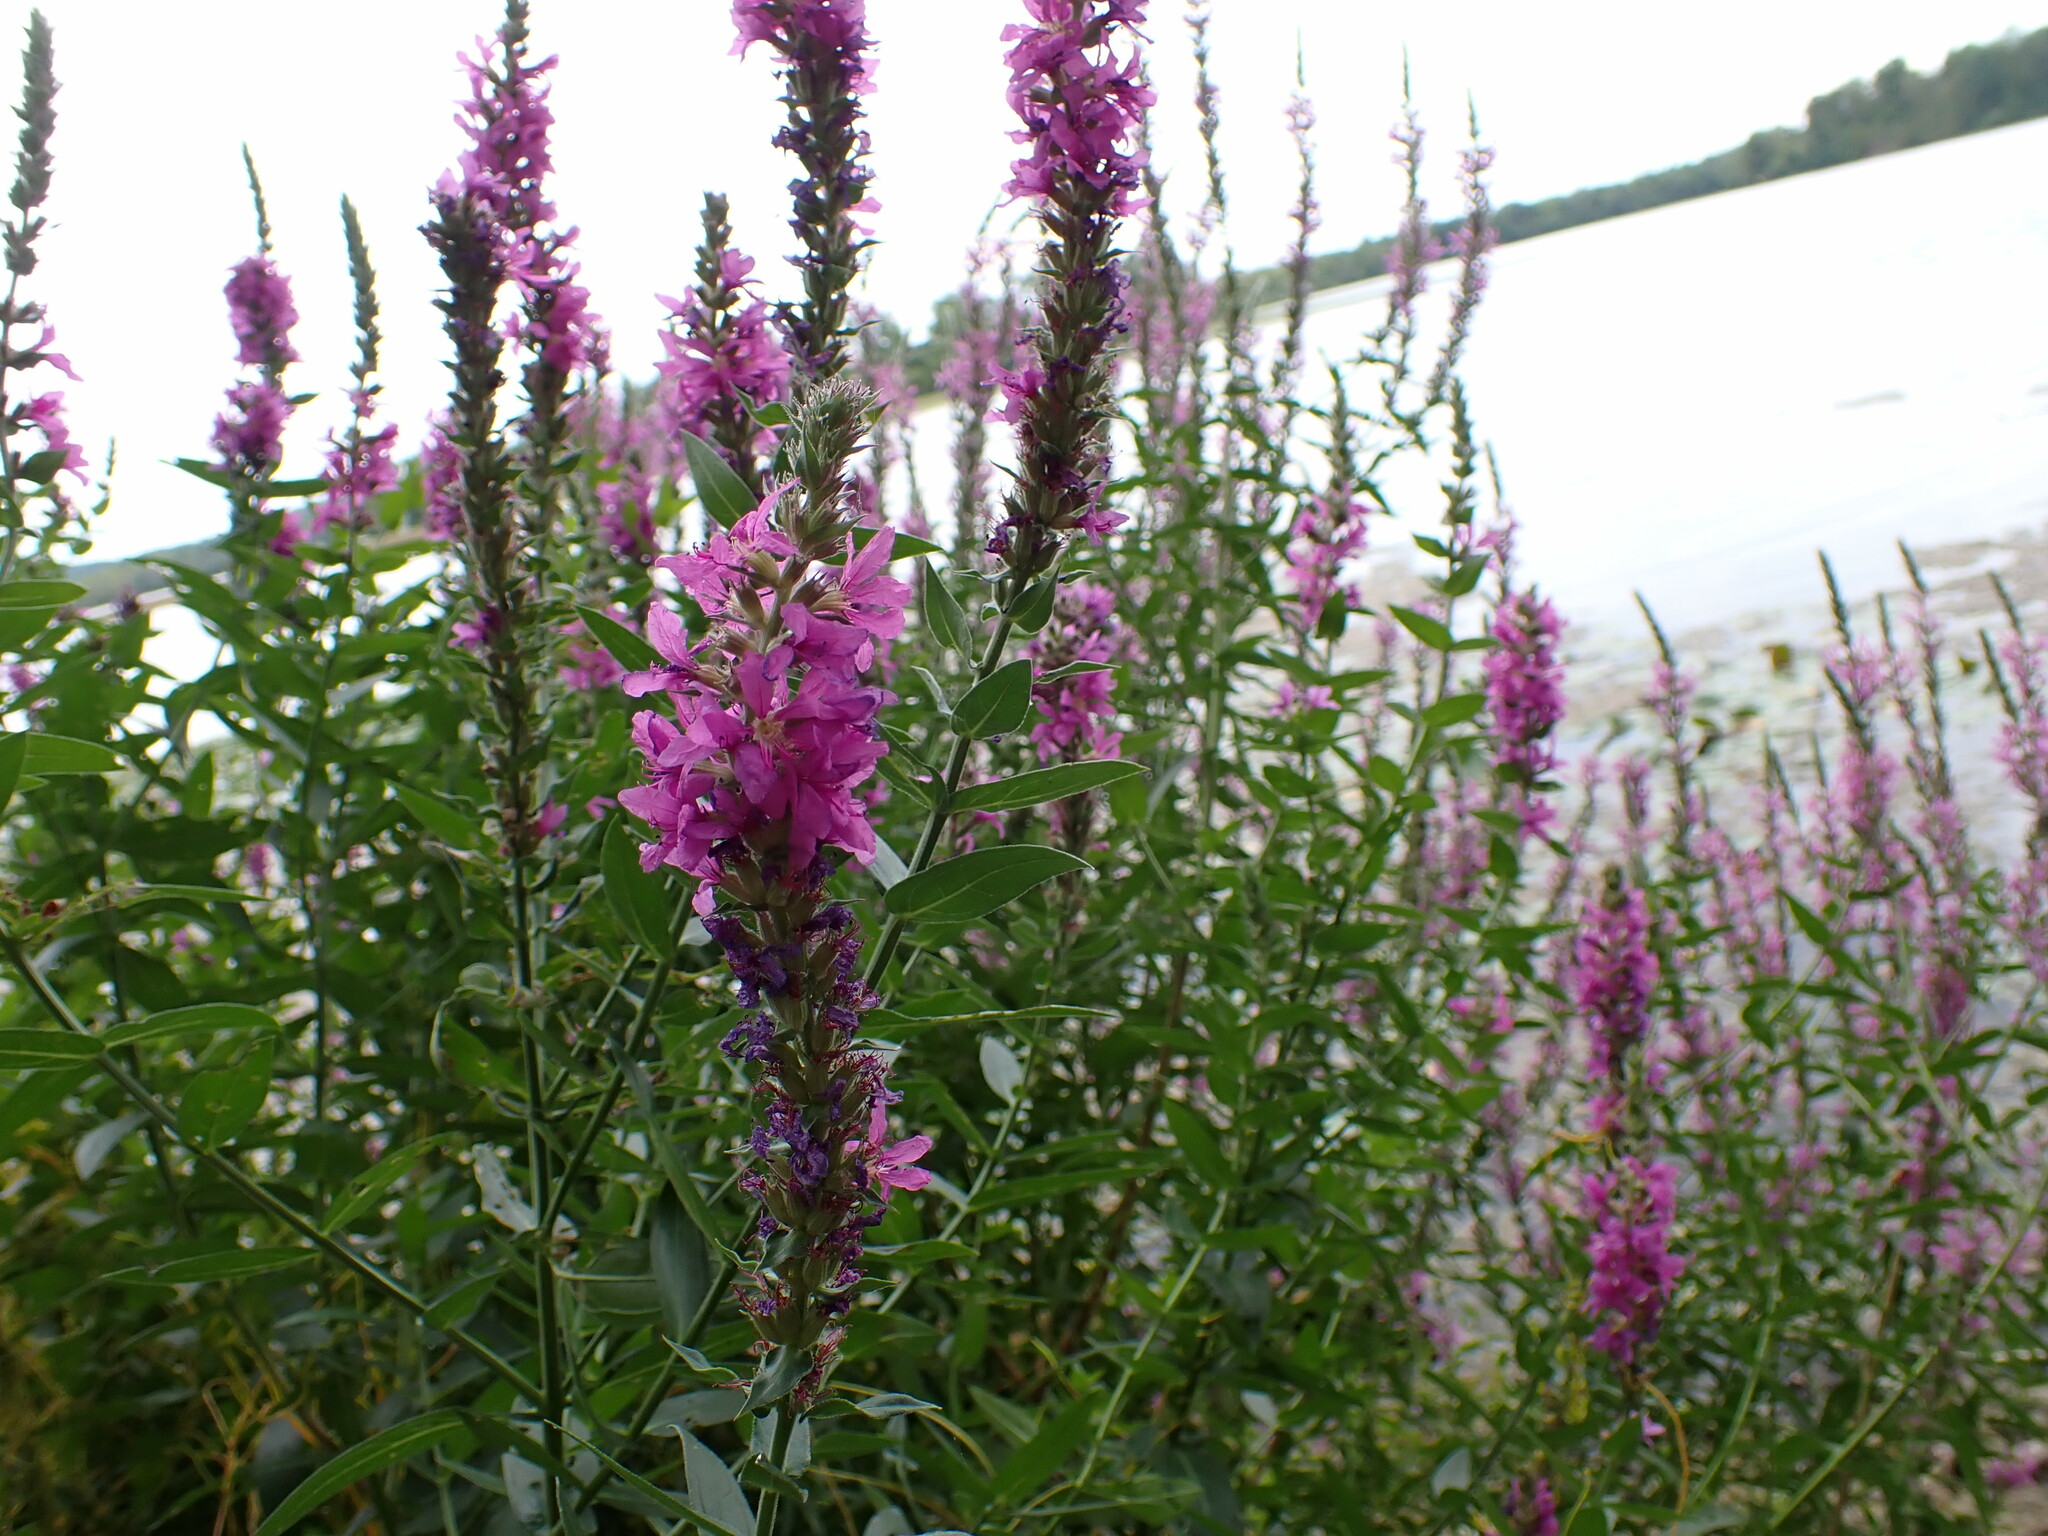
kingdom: Plantae
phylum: Tracheophyta
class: Magnoliopsida
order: Myrtales
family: Lythraceae
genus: Lythrum
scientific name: Lythrum salicaria
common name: Purple loosestrife
